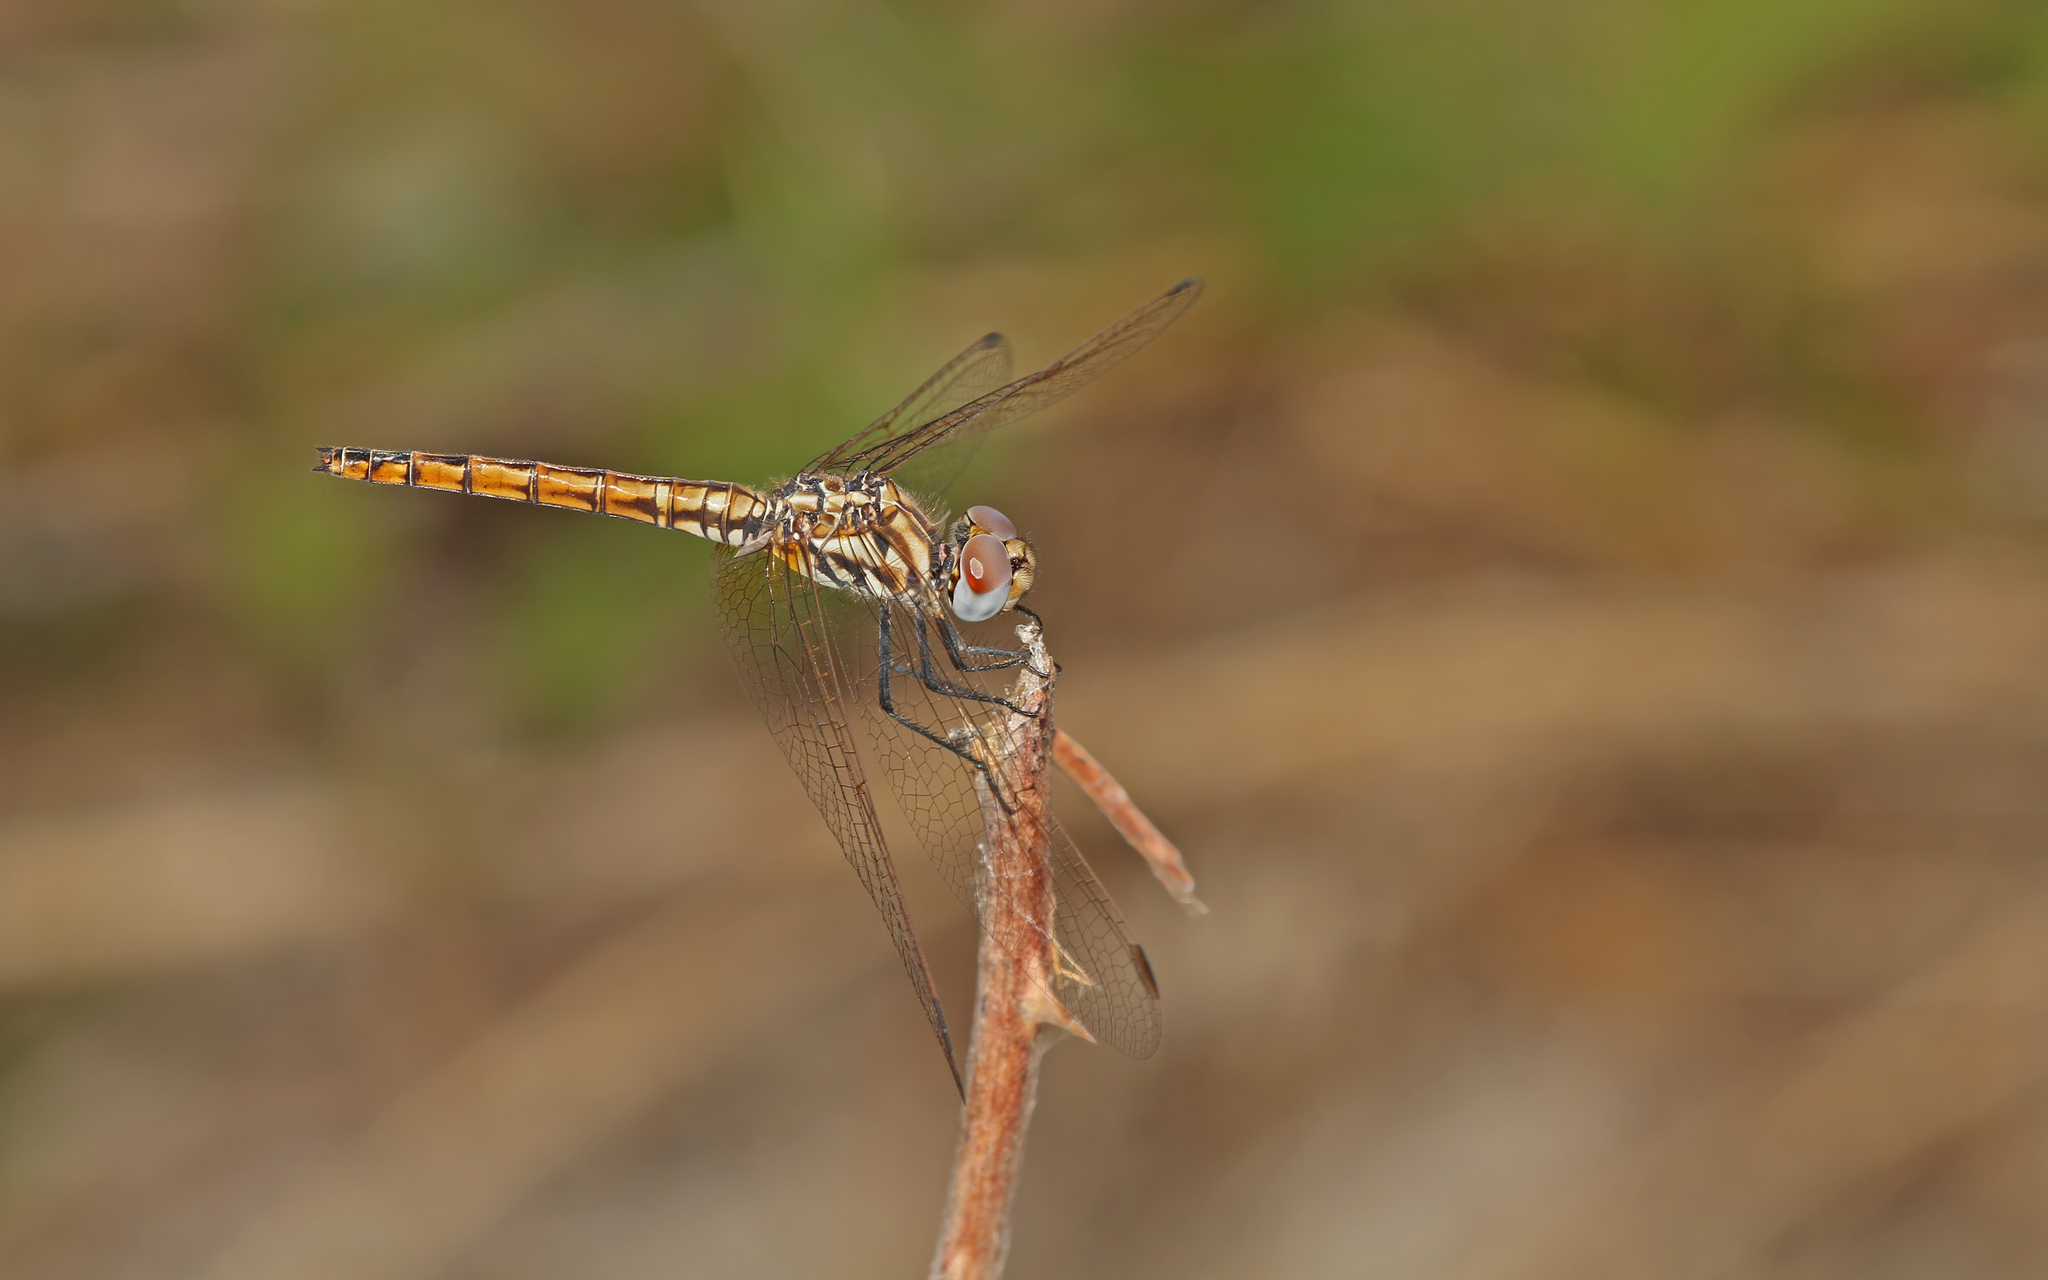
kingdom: Animalia
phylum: Arthropoda
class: Insecta
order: Odonata
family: Libellulidae
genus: Trithemis
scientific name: Trithemis annulata
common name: Violet dropwing
